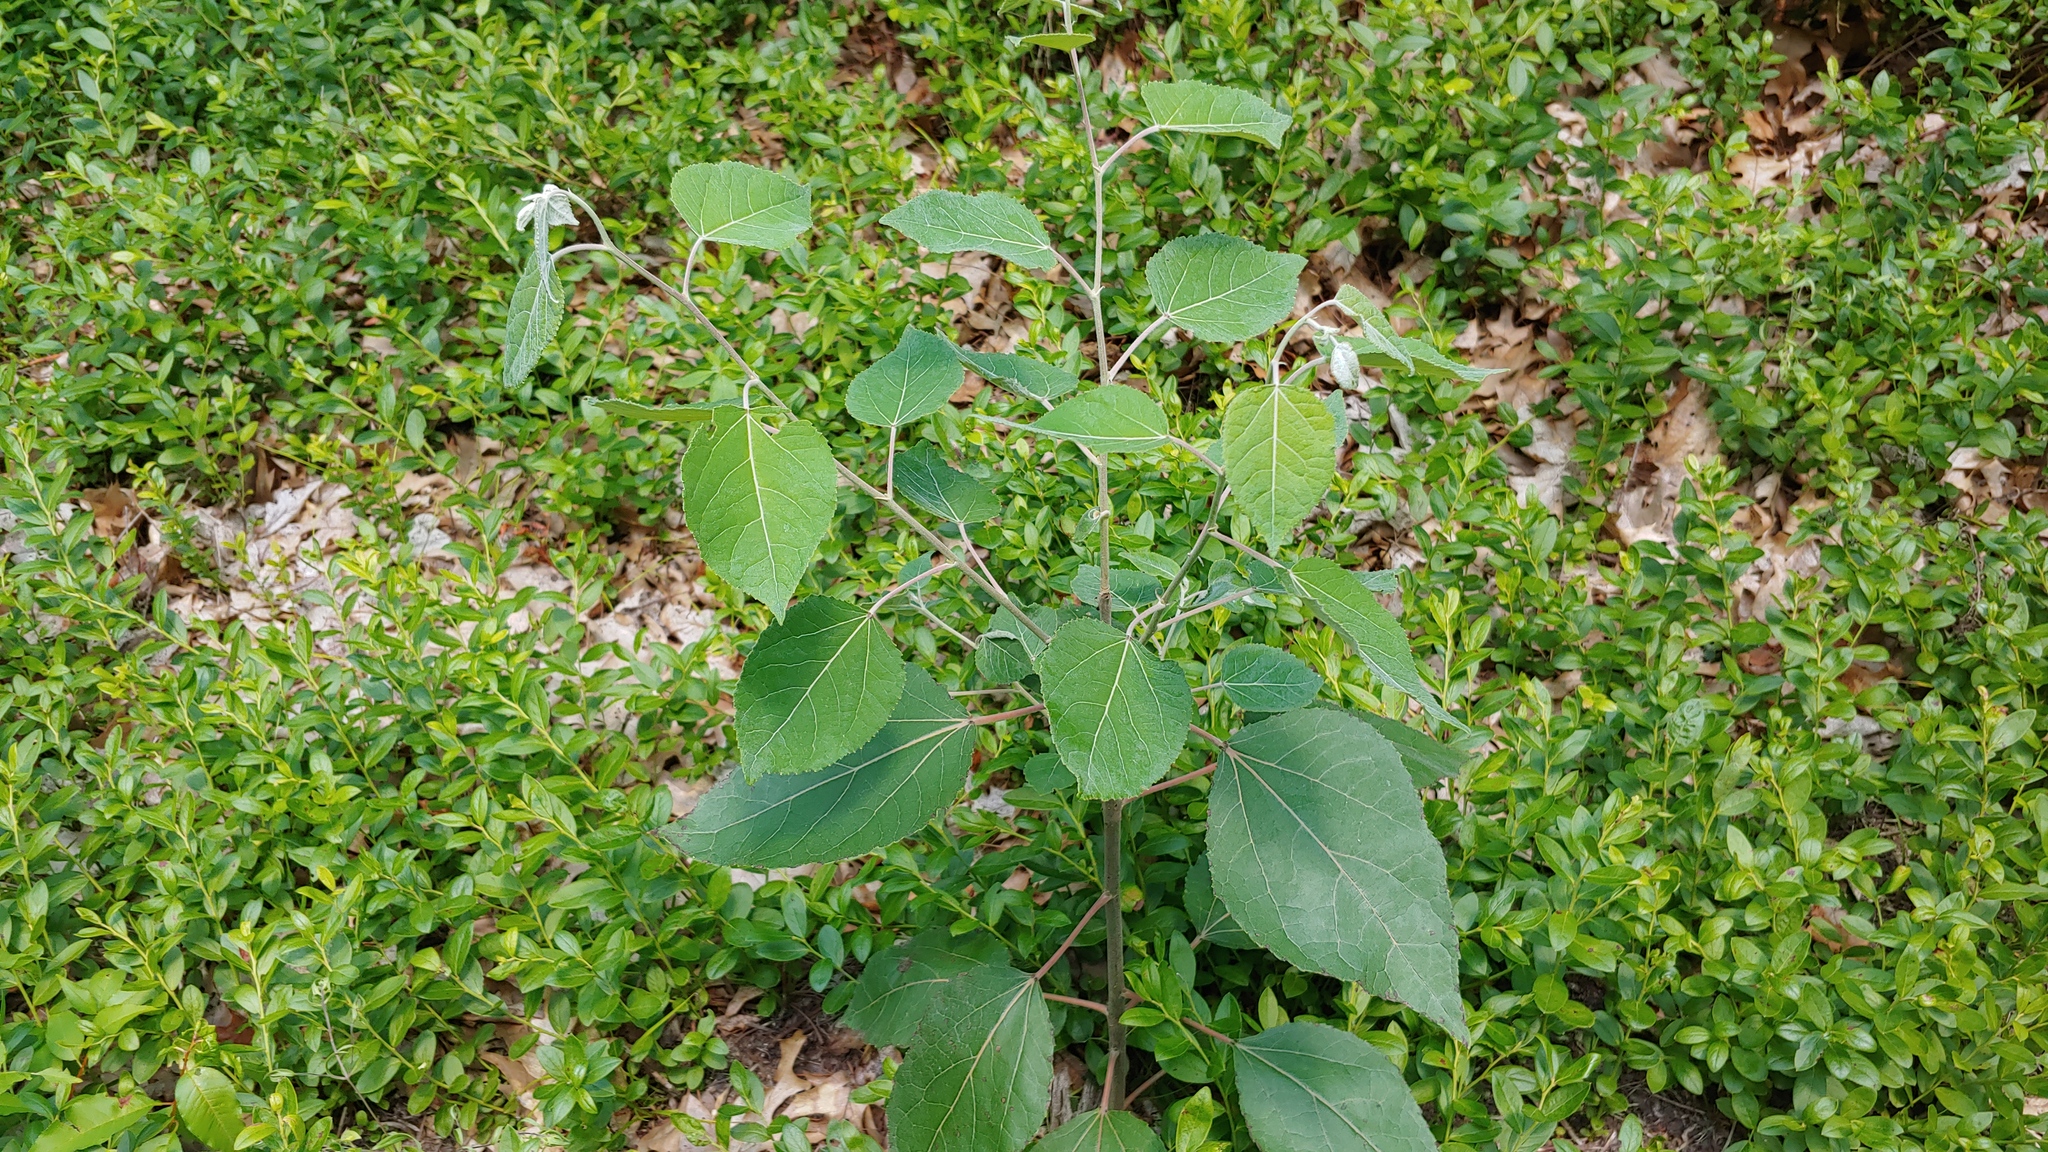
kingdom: Plantae
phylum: Tracheophyta
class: Magnoliopsida
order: Malpighiales
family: Salicaceae
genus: Populus
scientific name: Populus tremuloides
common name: Quaking aspen
